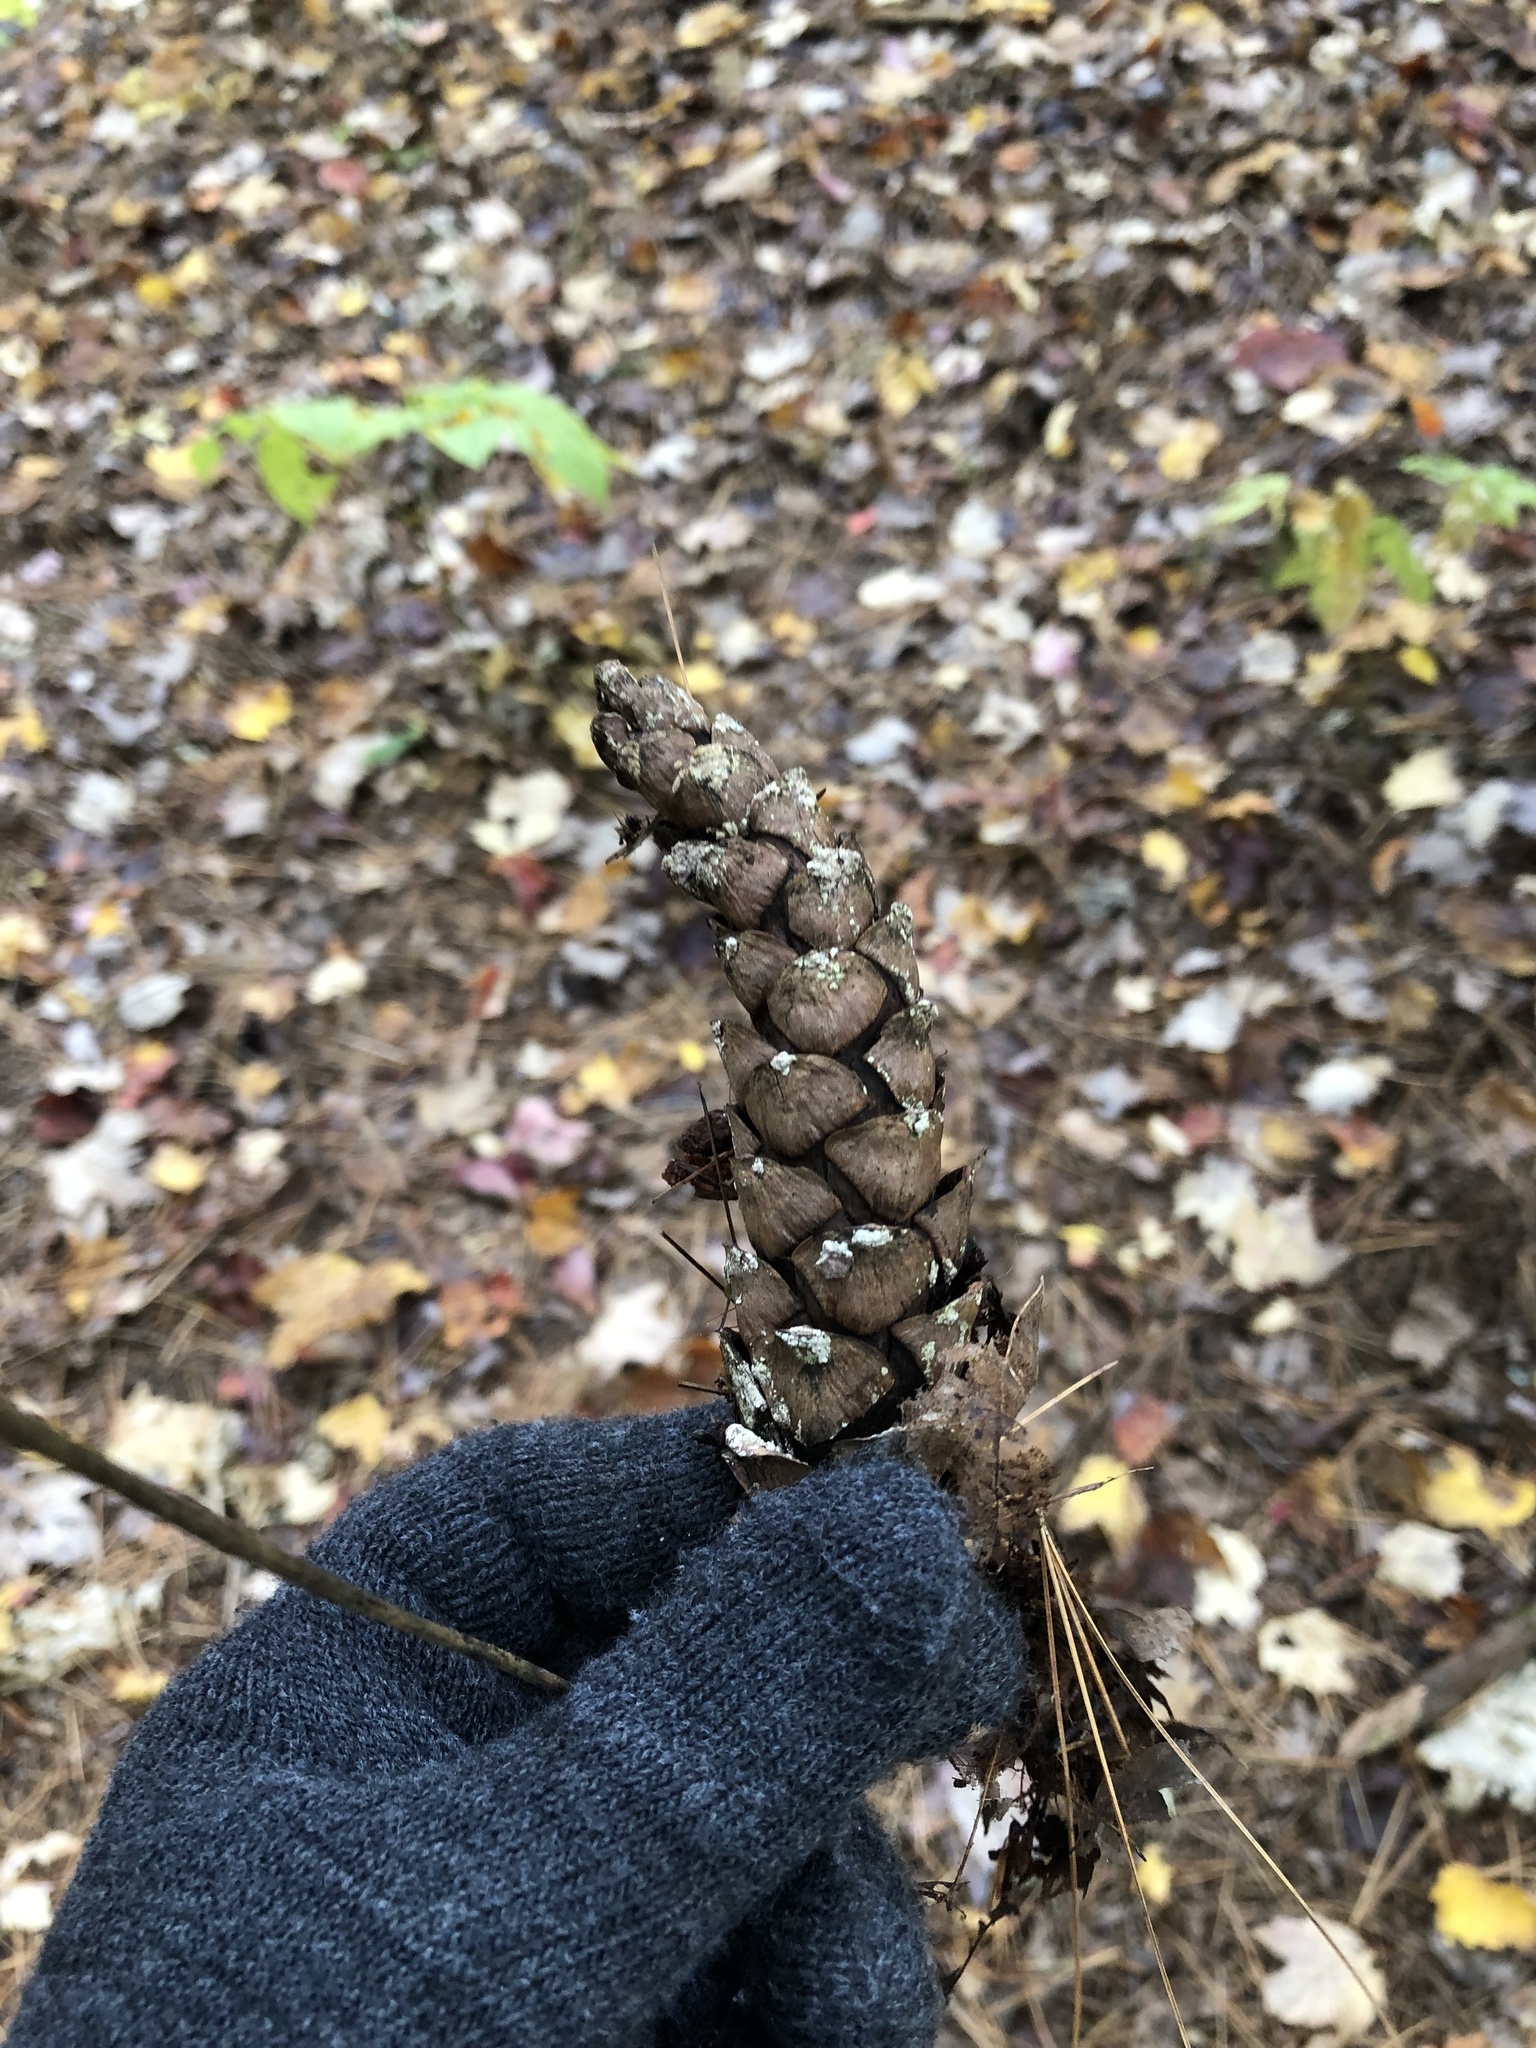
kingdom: Plantae
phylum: Tracheophyta
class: Pinopsida
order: Pinales
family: Pinaceae
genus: Pinus
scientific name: Pinus strobus
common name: Weymouth pine
